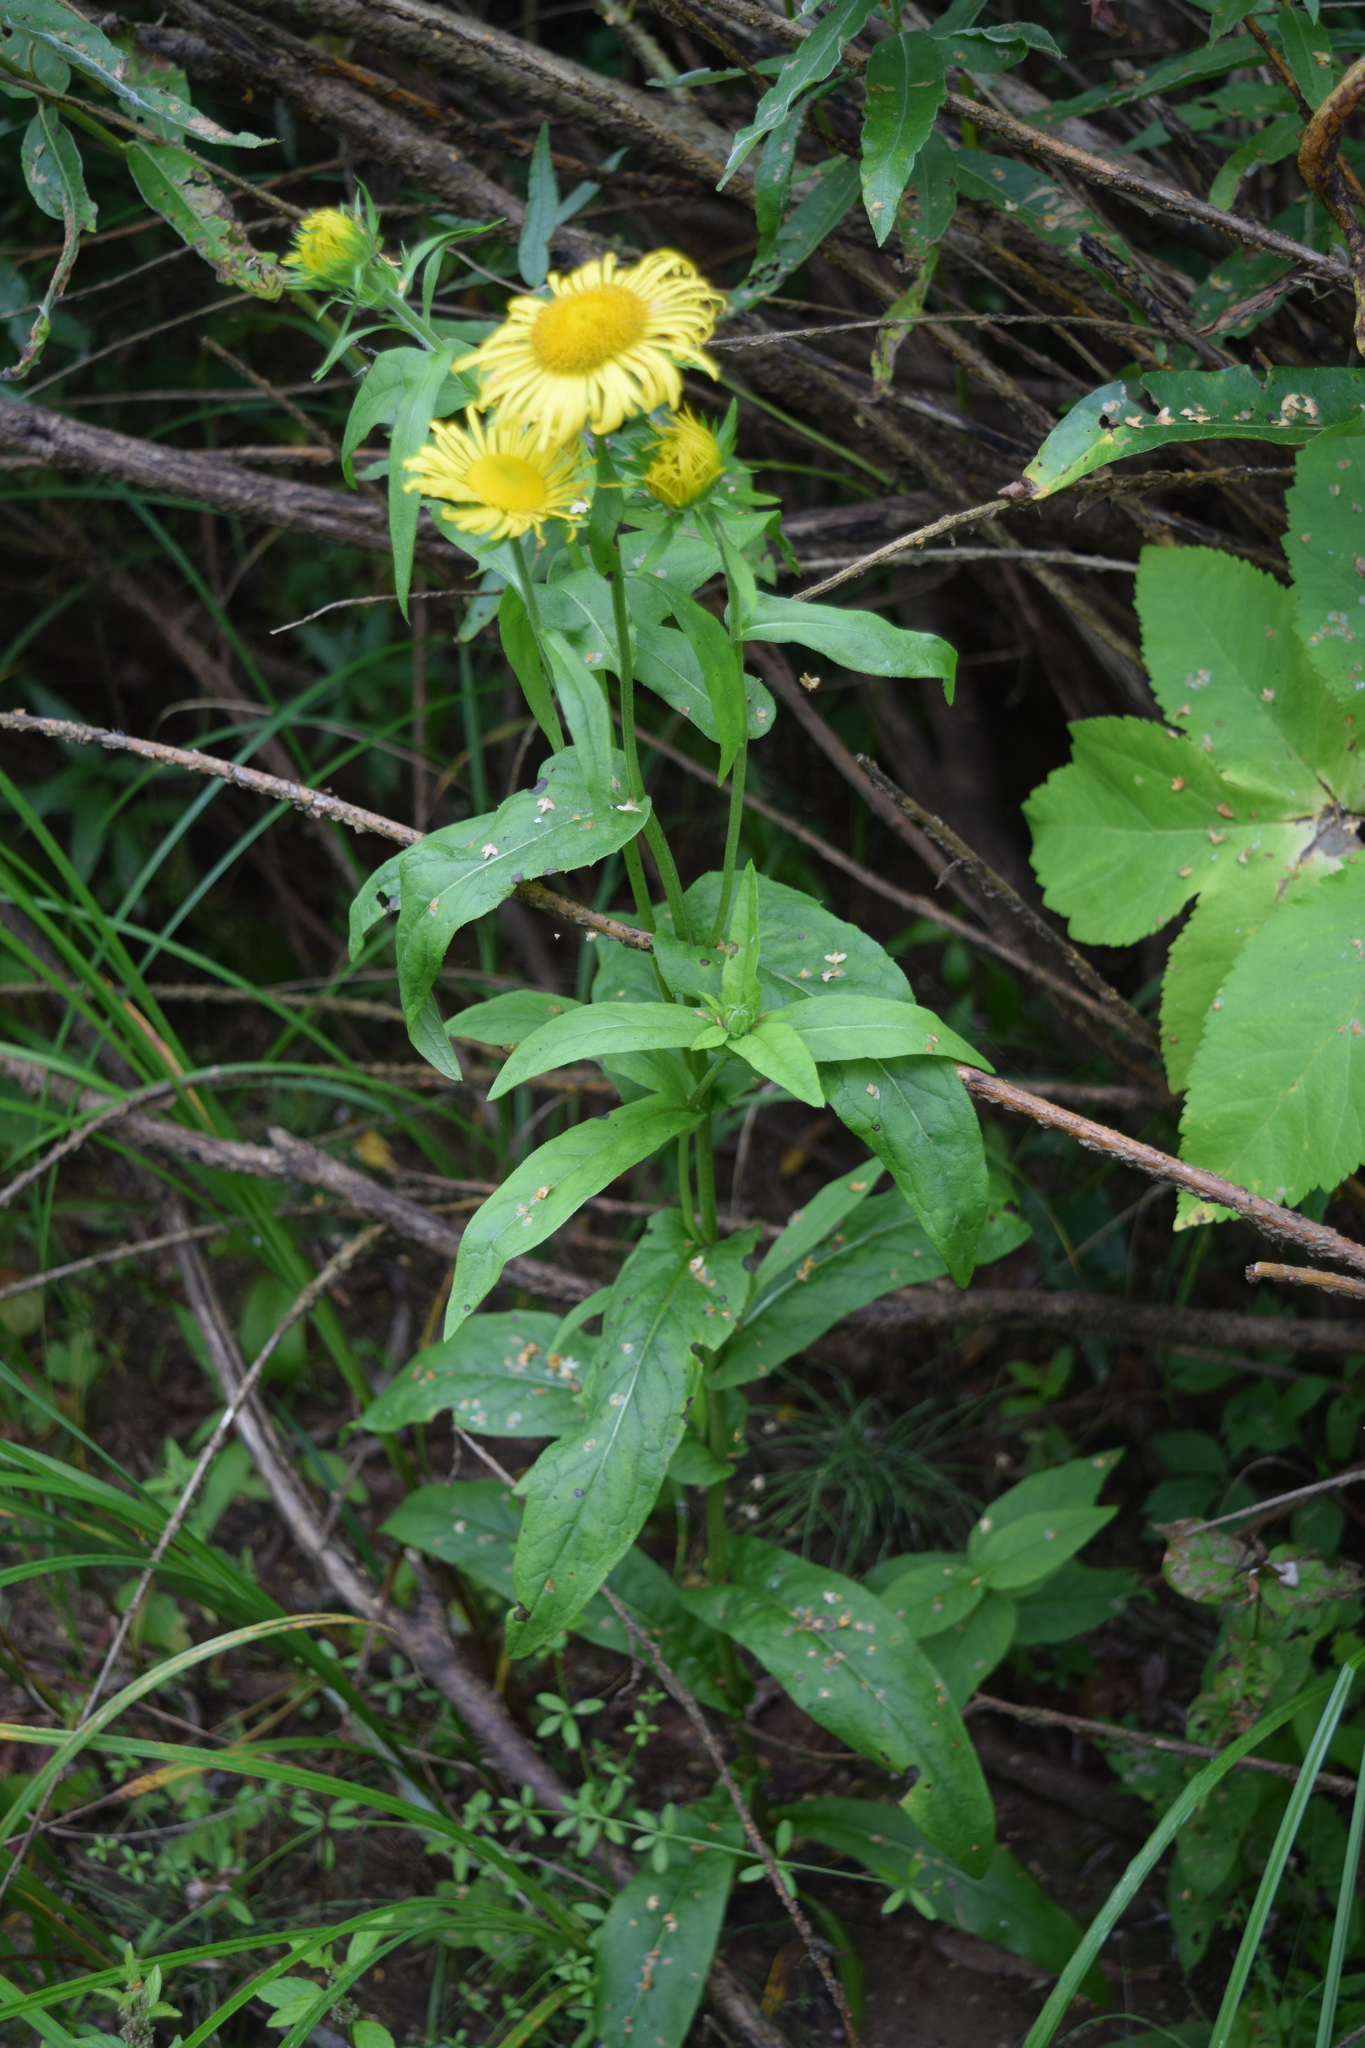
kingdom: Plantae
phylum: Tracheophyta
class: Magnoliopsida
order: Asterales
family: Asteraceae
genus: Pentanema
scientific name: Pentanema britannicum
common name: British elecampane
